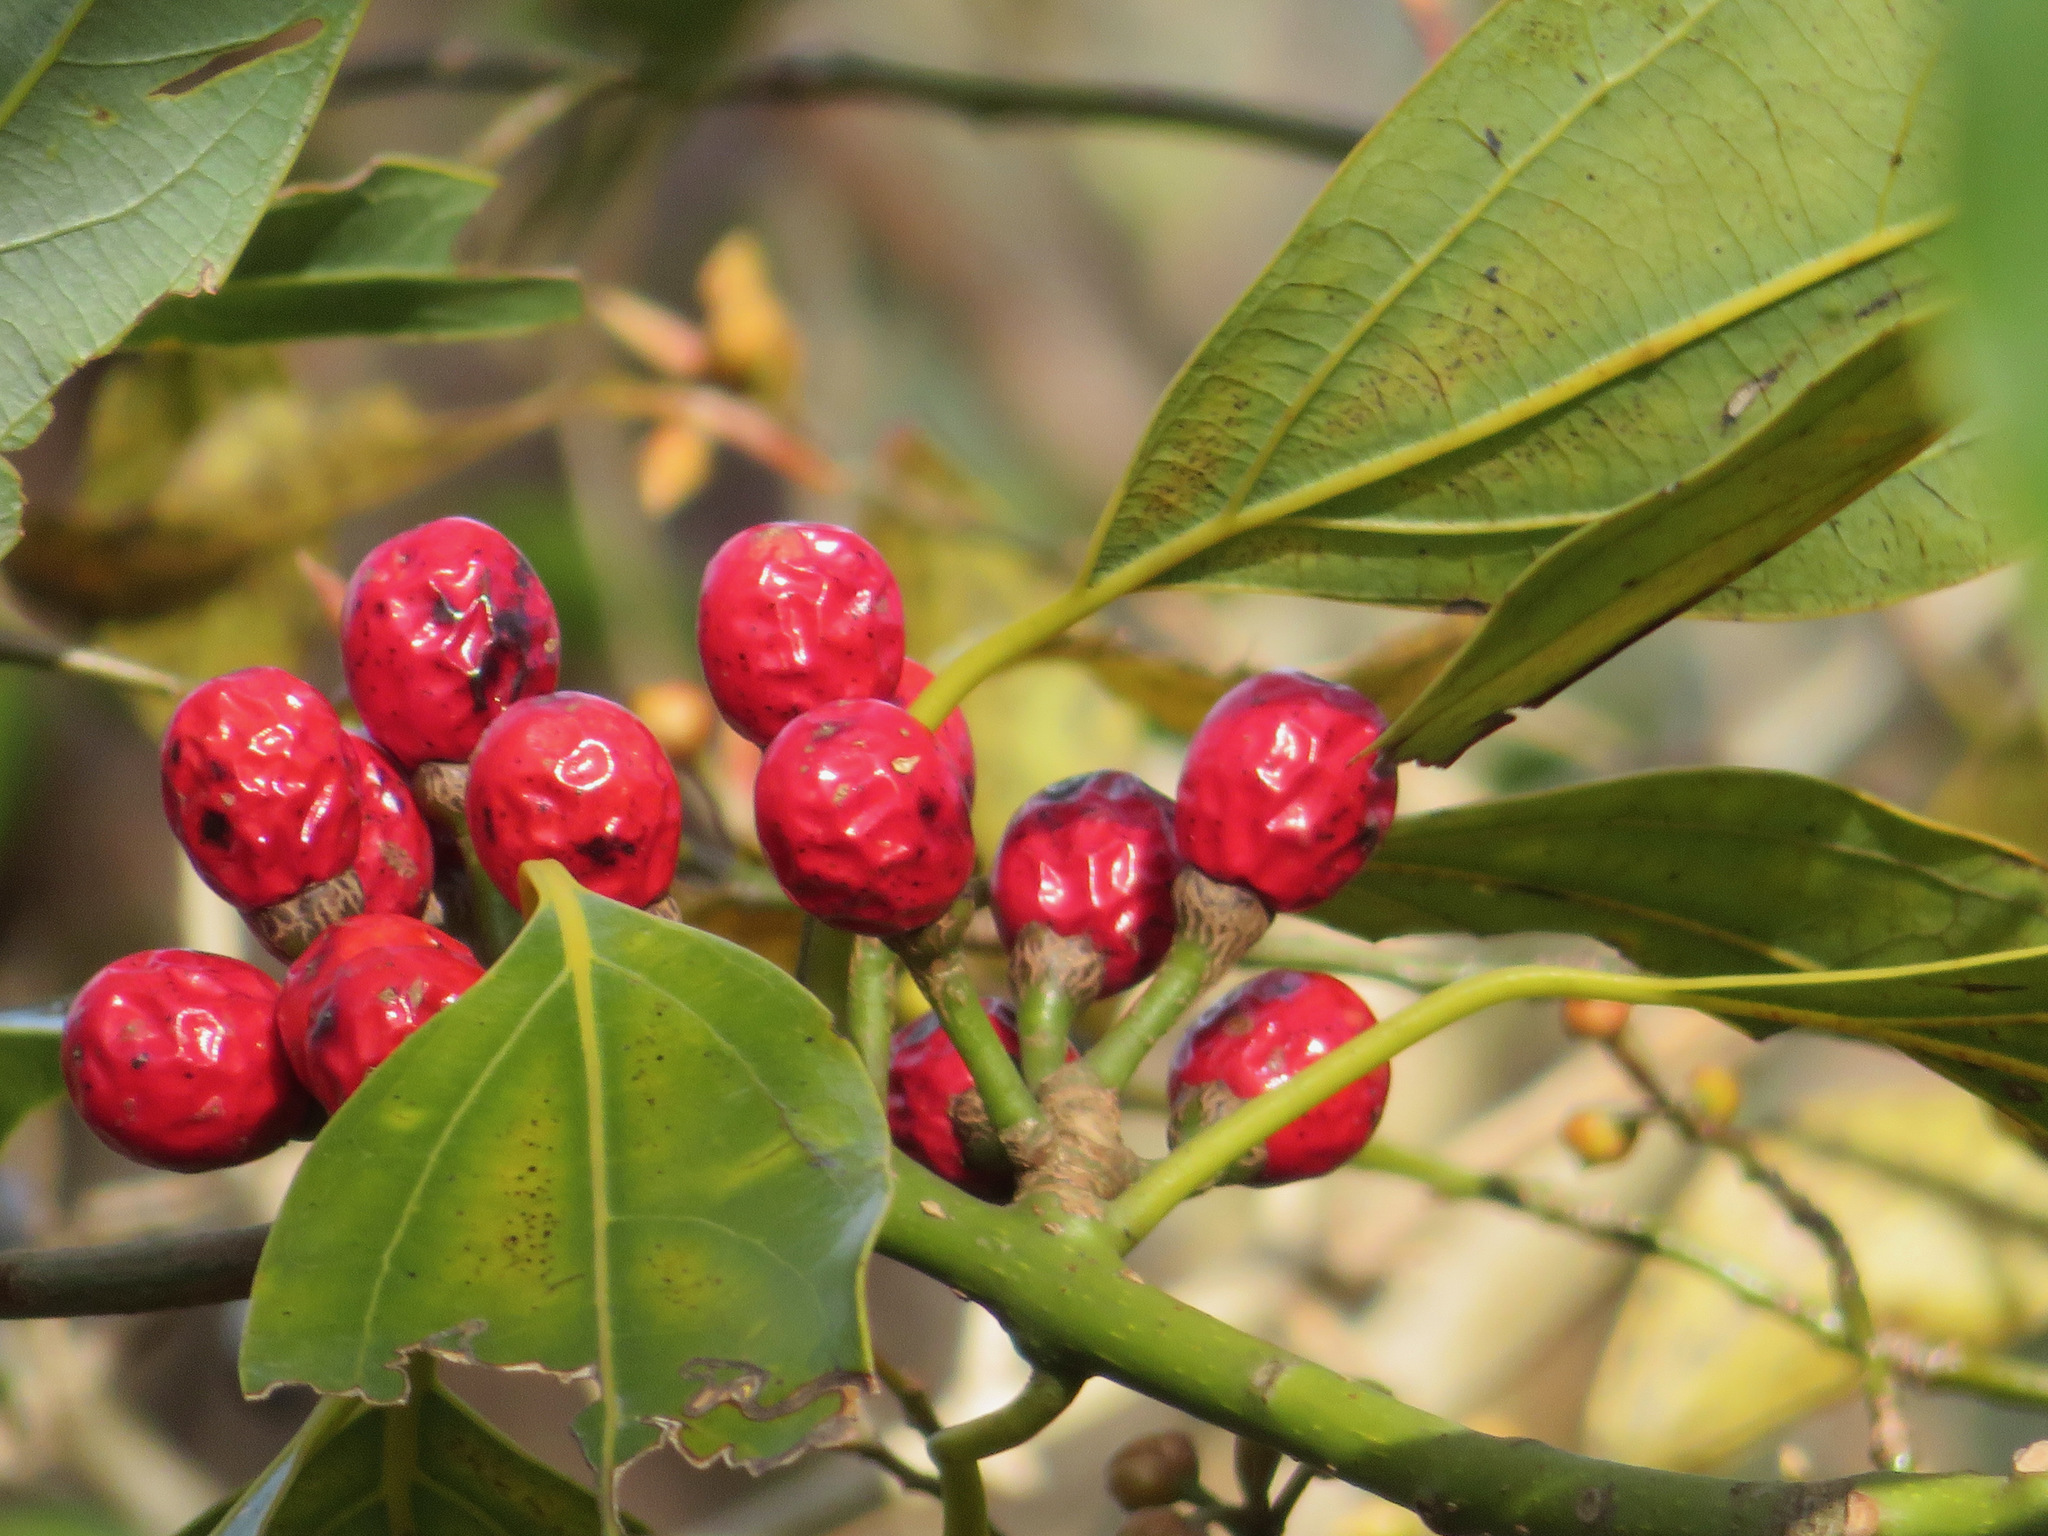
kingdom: Plantae
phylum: Tracheophyta
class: Magnoliopsida
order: Laurales
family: Lauraceae
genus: Neolitsea
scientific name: Neolitsea sericea
